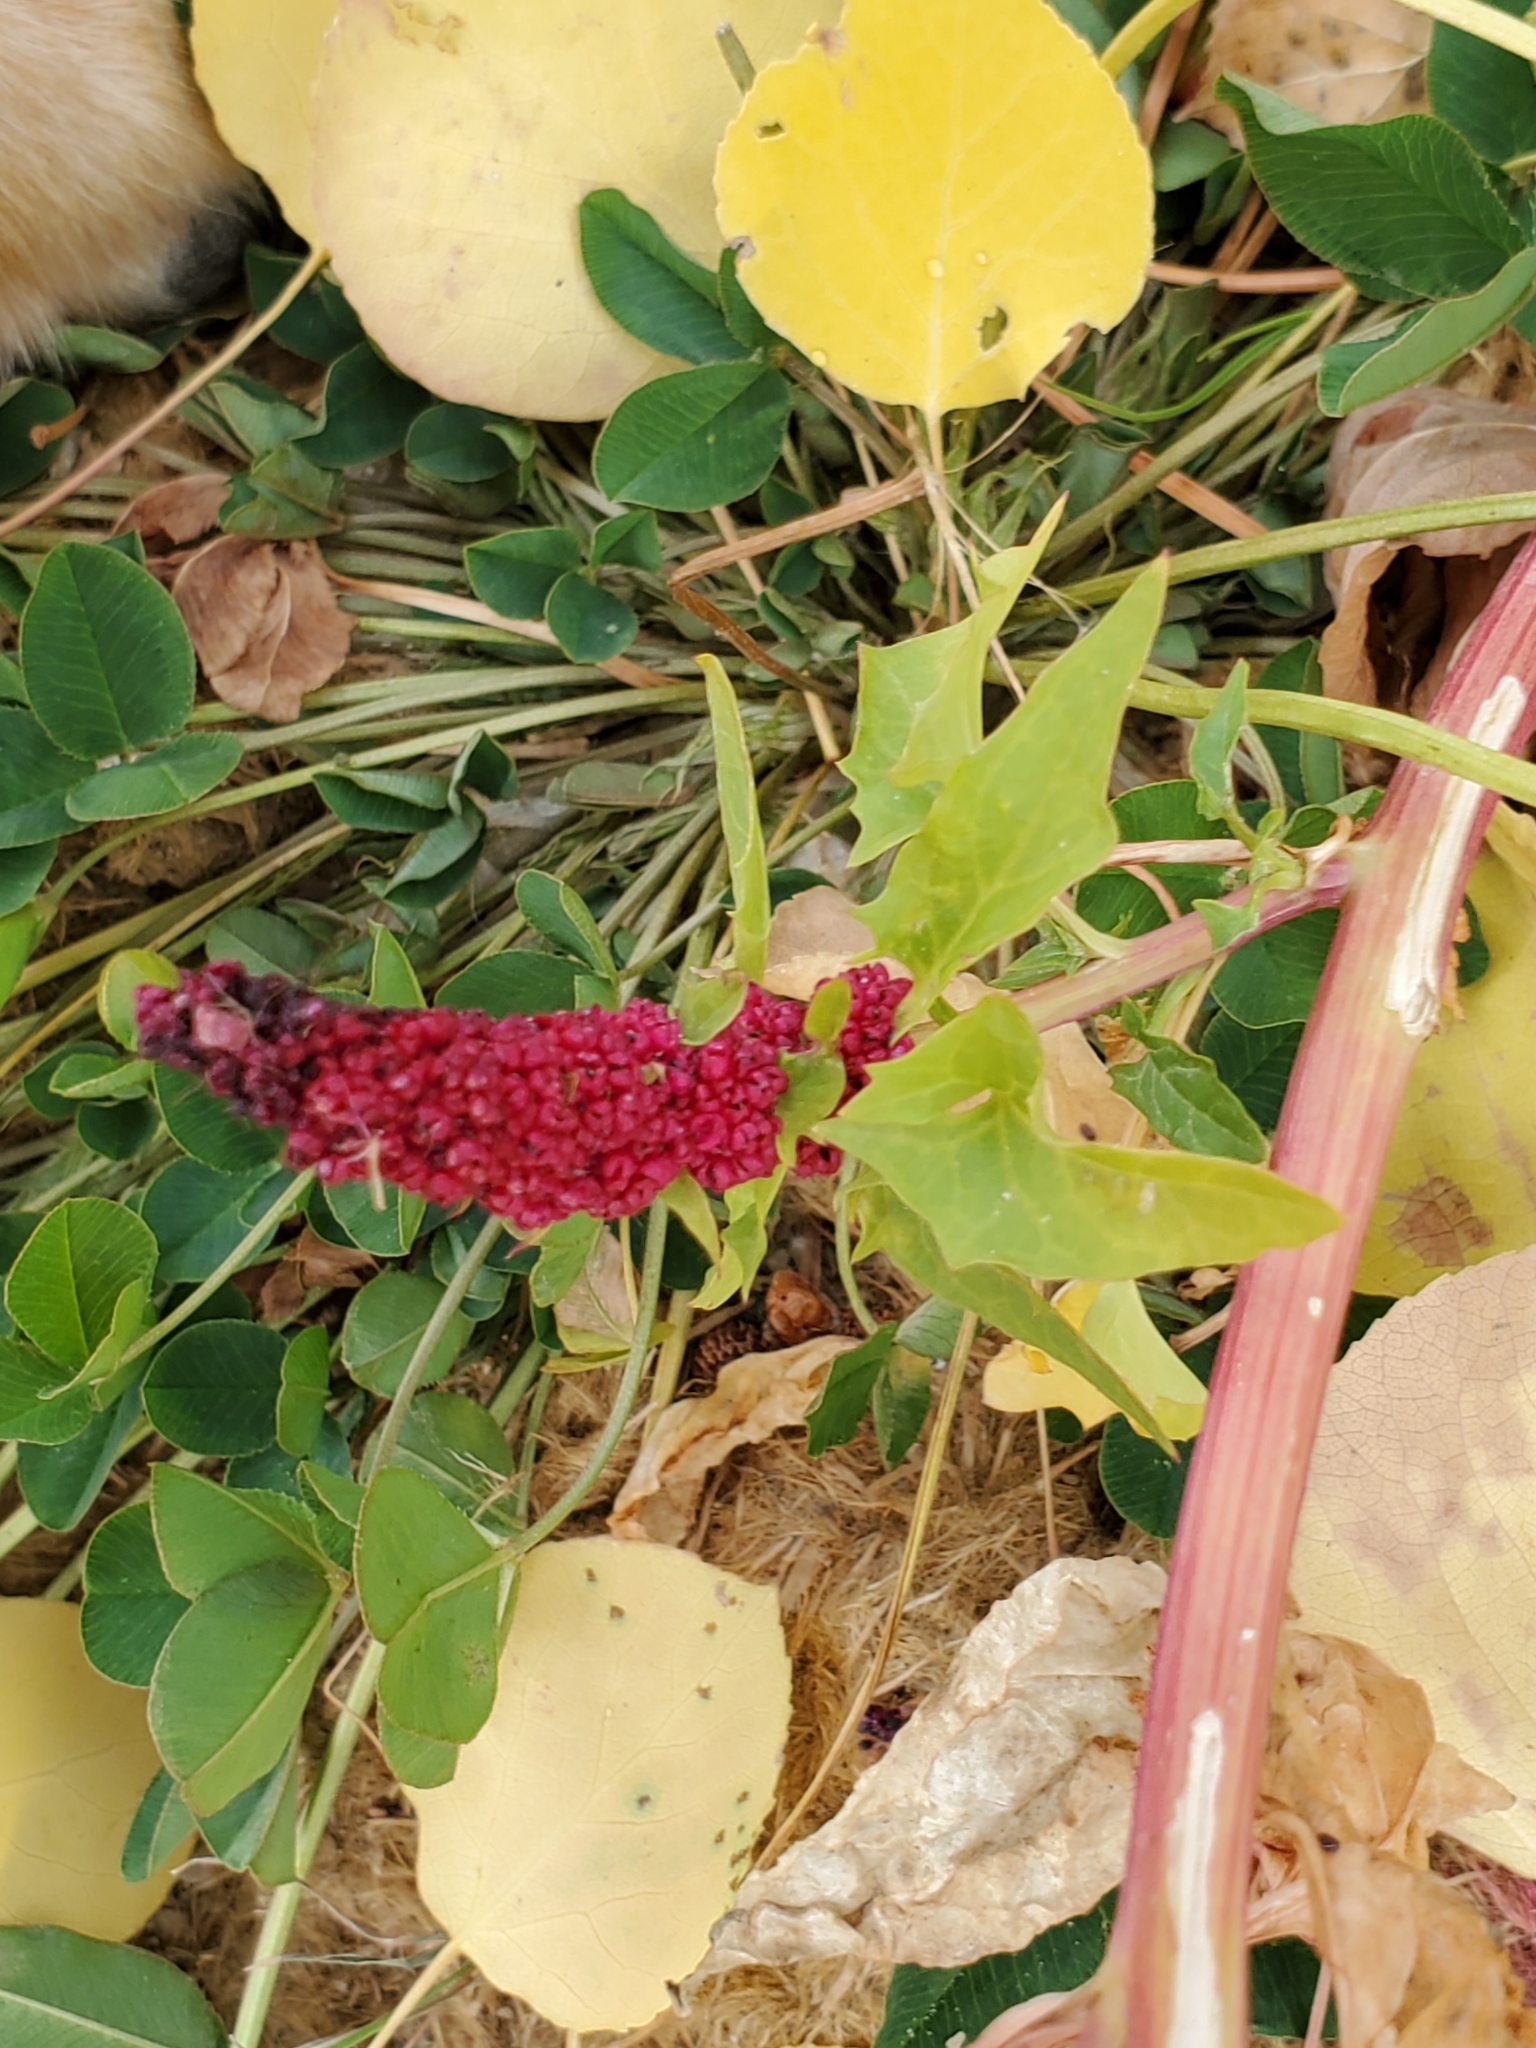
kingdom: Plantae
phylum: Tracheophyta
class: Magnoliopsida
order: Caryophyllales
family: Amaranthaceae
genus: Blitum
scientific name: Blitum capitatum
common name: Strawberry-blight
